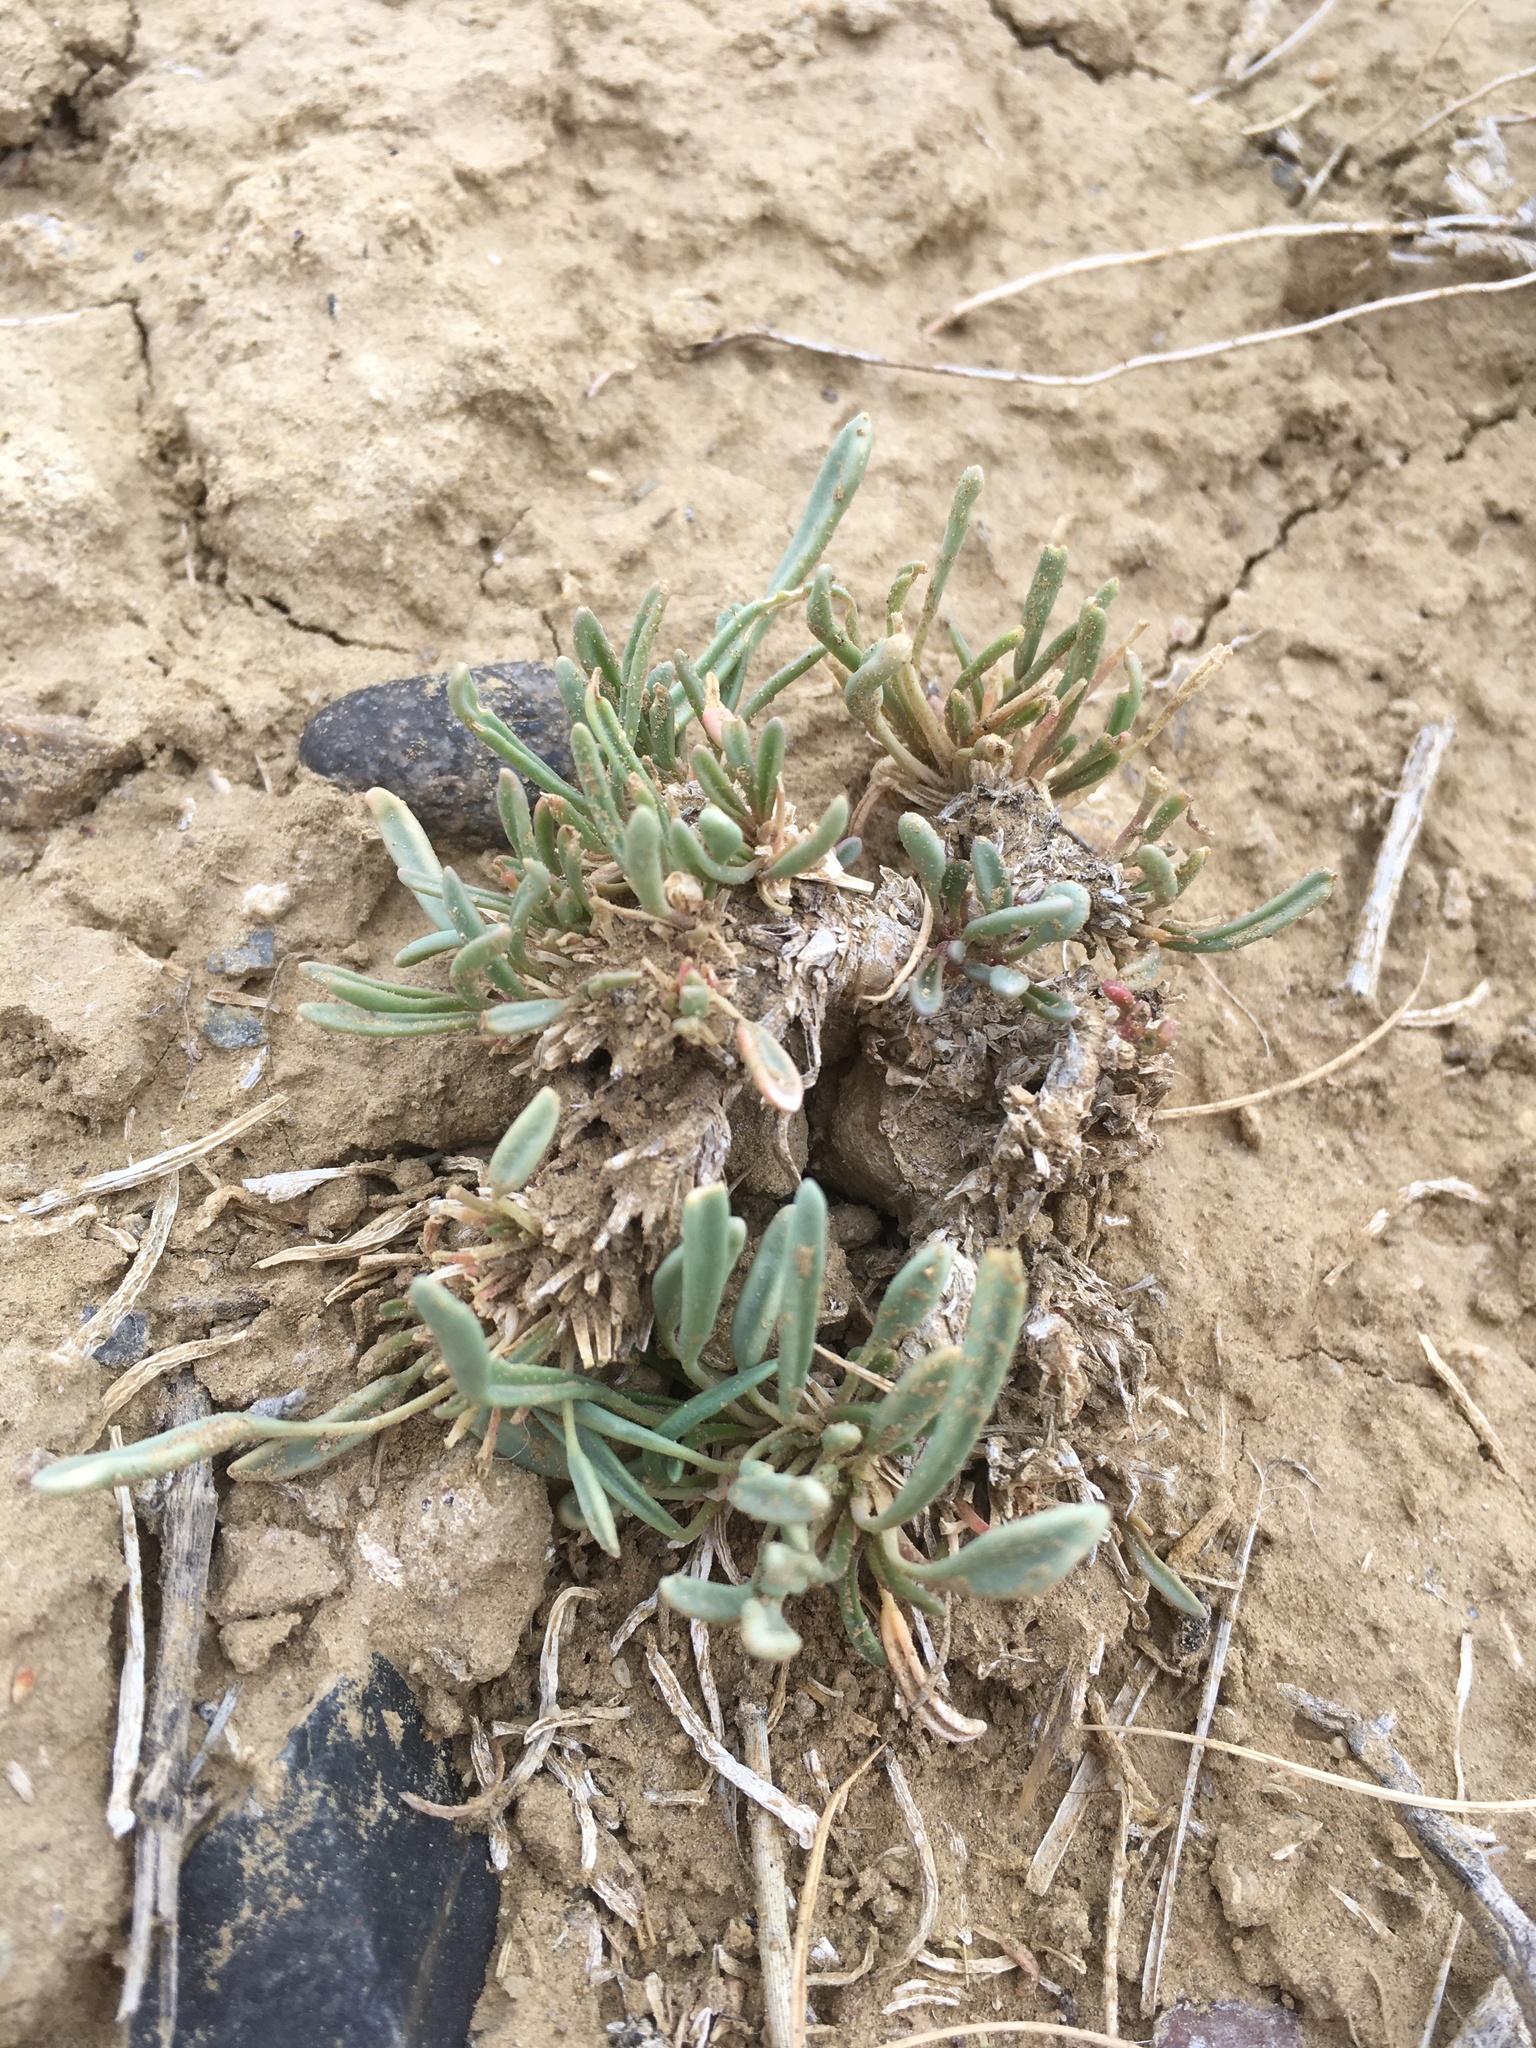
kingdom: Plantae
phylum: Tracheophyta
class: Magnoliopsida
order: Caryophyllales
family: Nyctaginaceae
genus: Abronia
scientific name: Abronia bigelovii
